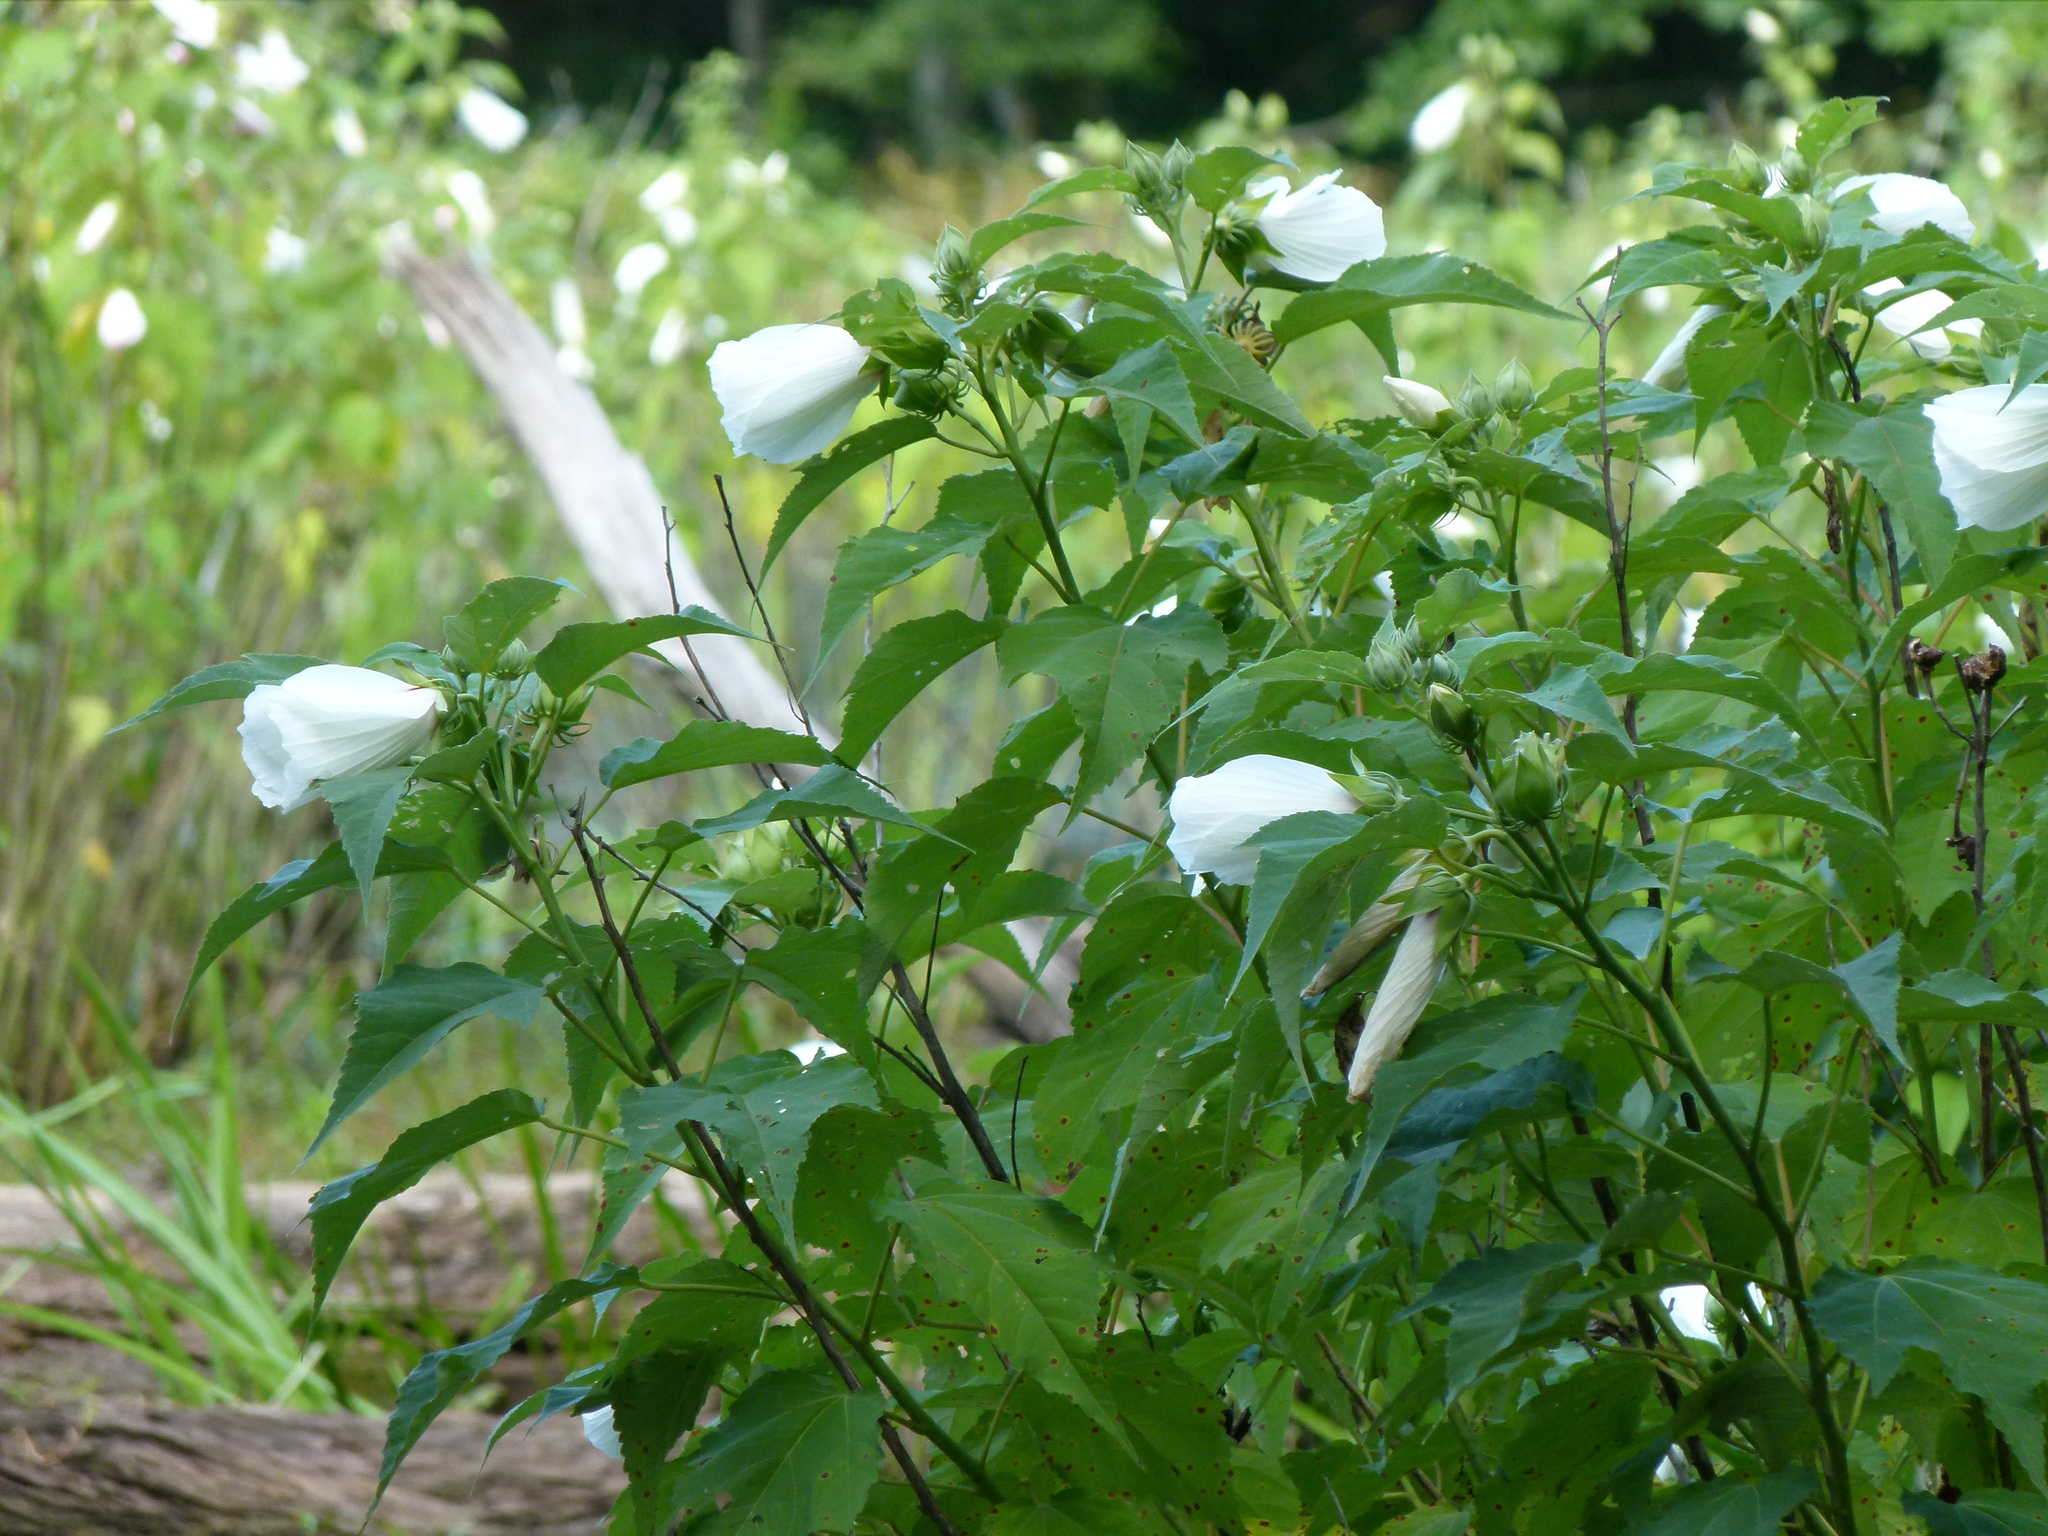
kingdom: Plantae
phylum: Tracheophyta
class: Magnoliopsida
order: Malvales
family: Malvaceae
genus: Hibiscus
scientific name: Hibiscus moscheutos
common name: Common rose-mallow
